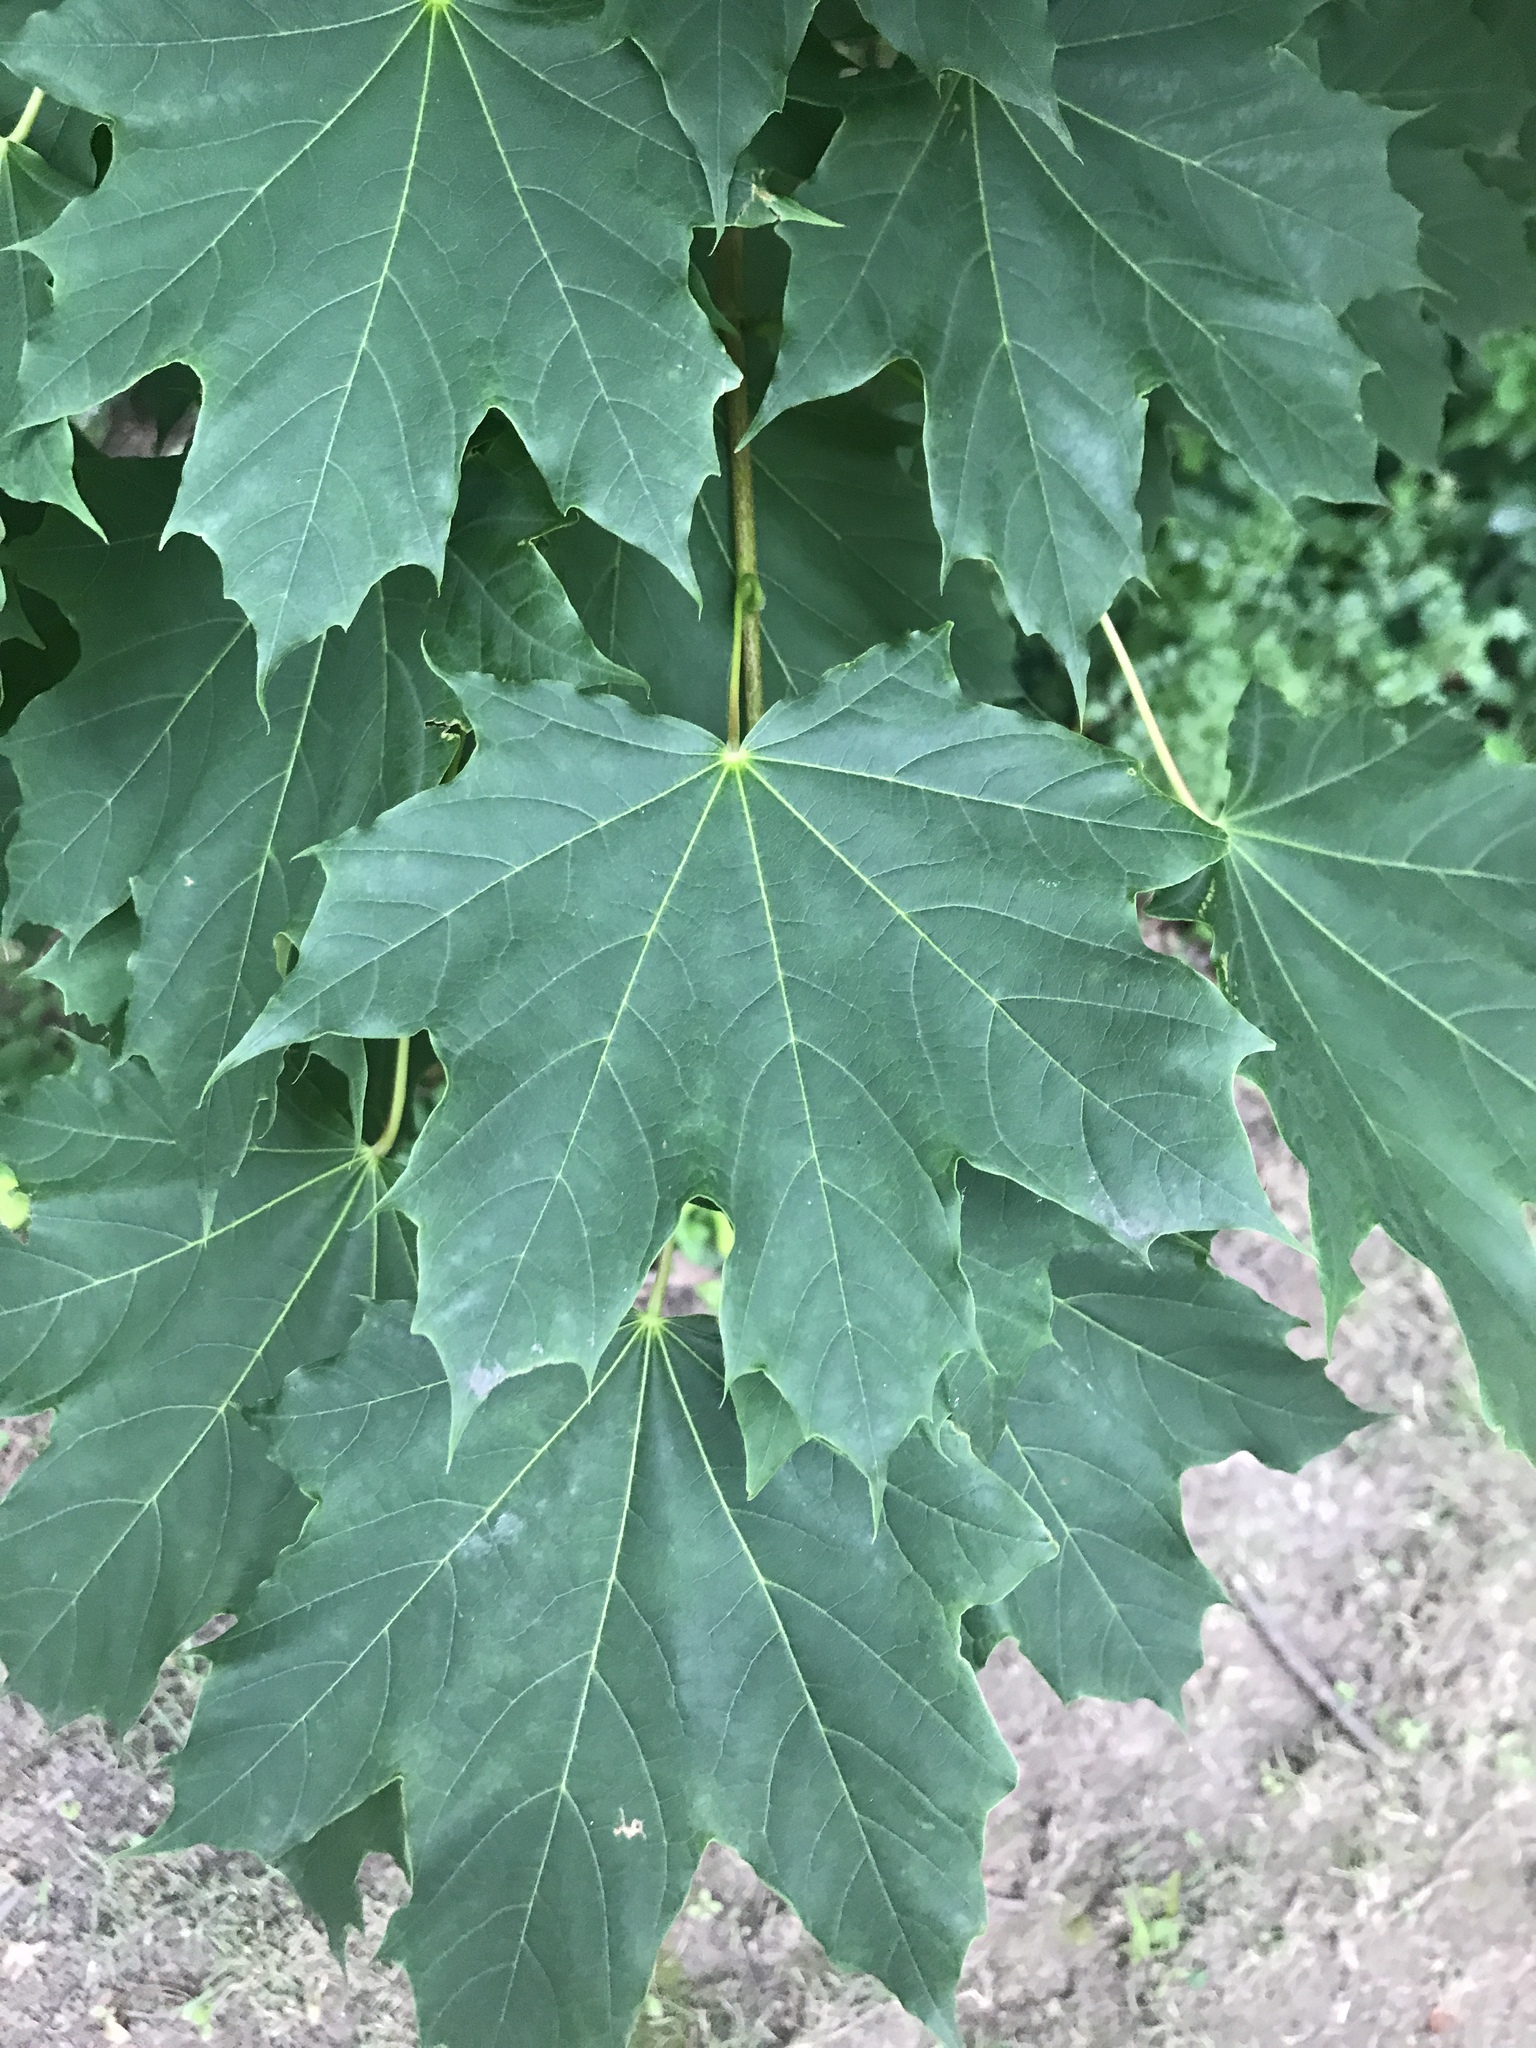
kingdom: Plantae
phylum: Tracheophyta
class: Magnoliopsida
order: Sapindales
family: Sapindaceae
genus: Acer
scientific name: Acer platanoides
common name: Norway maple
